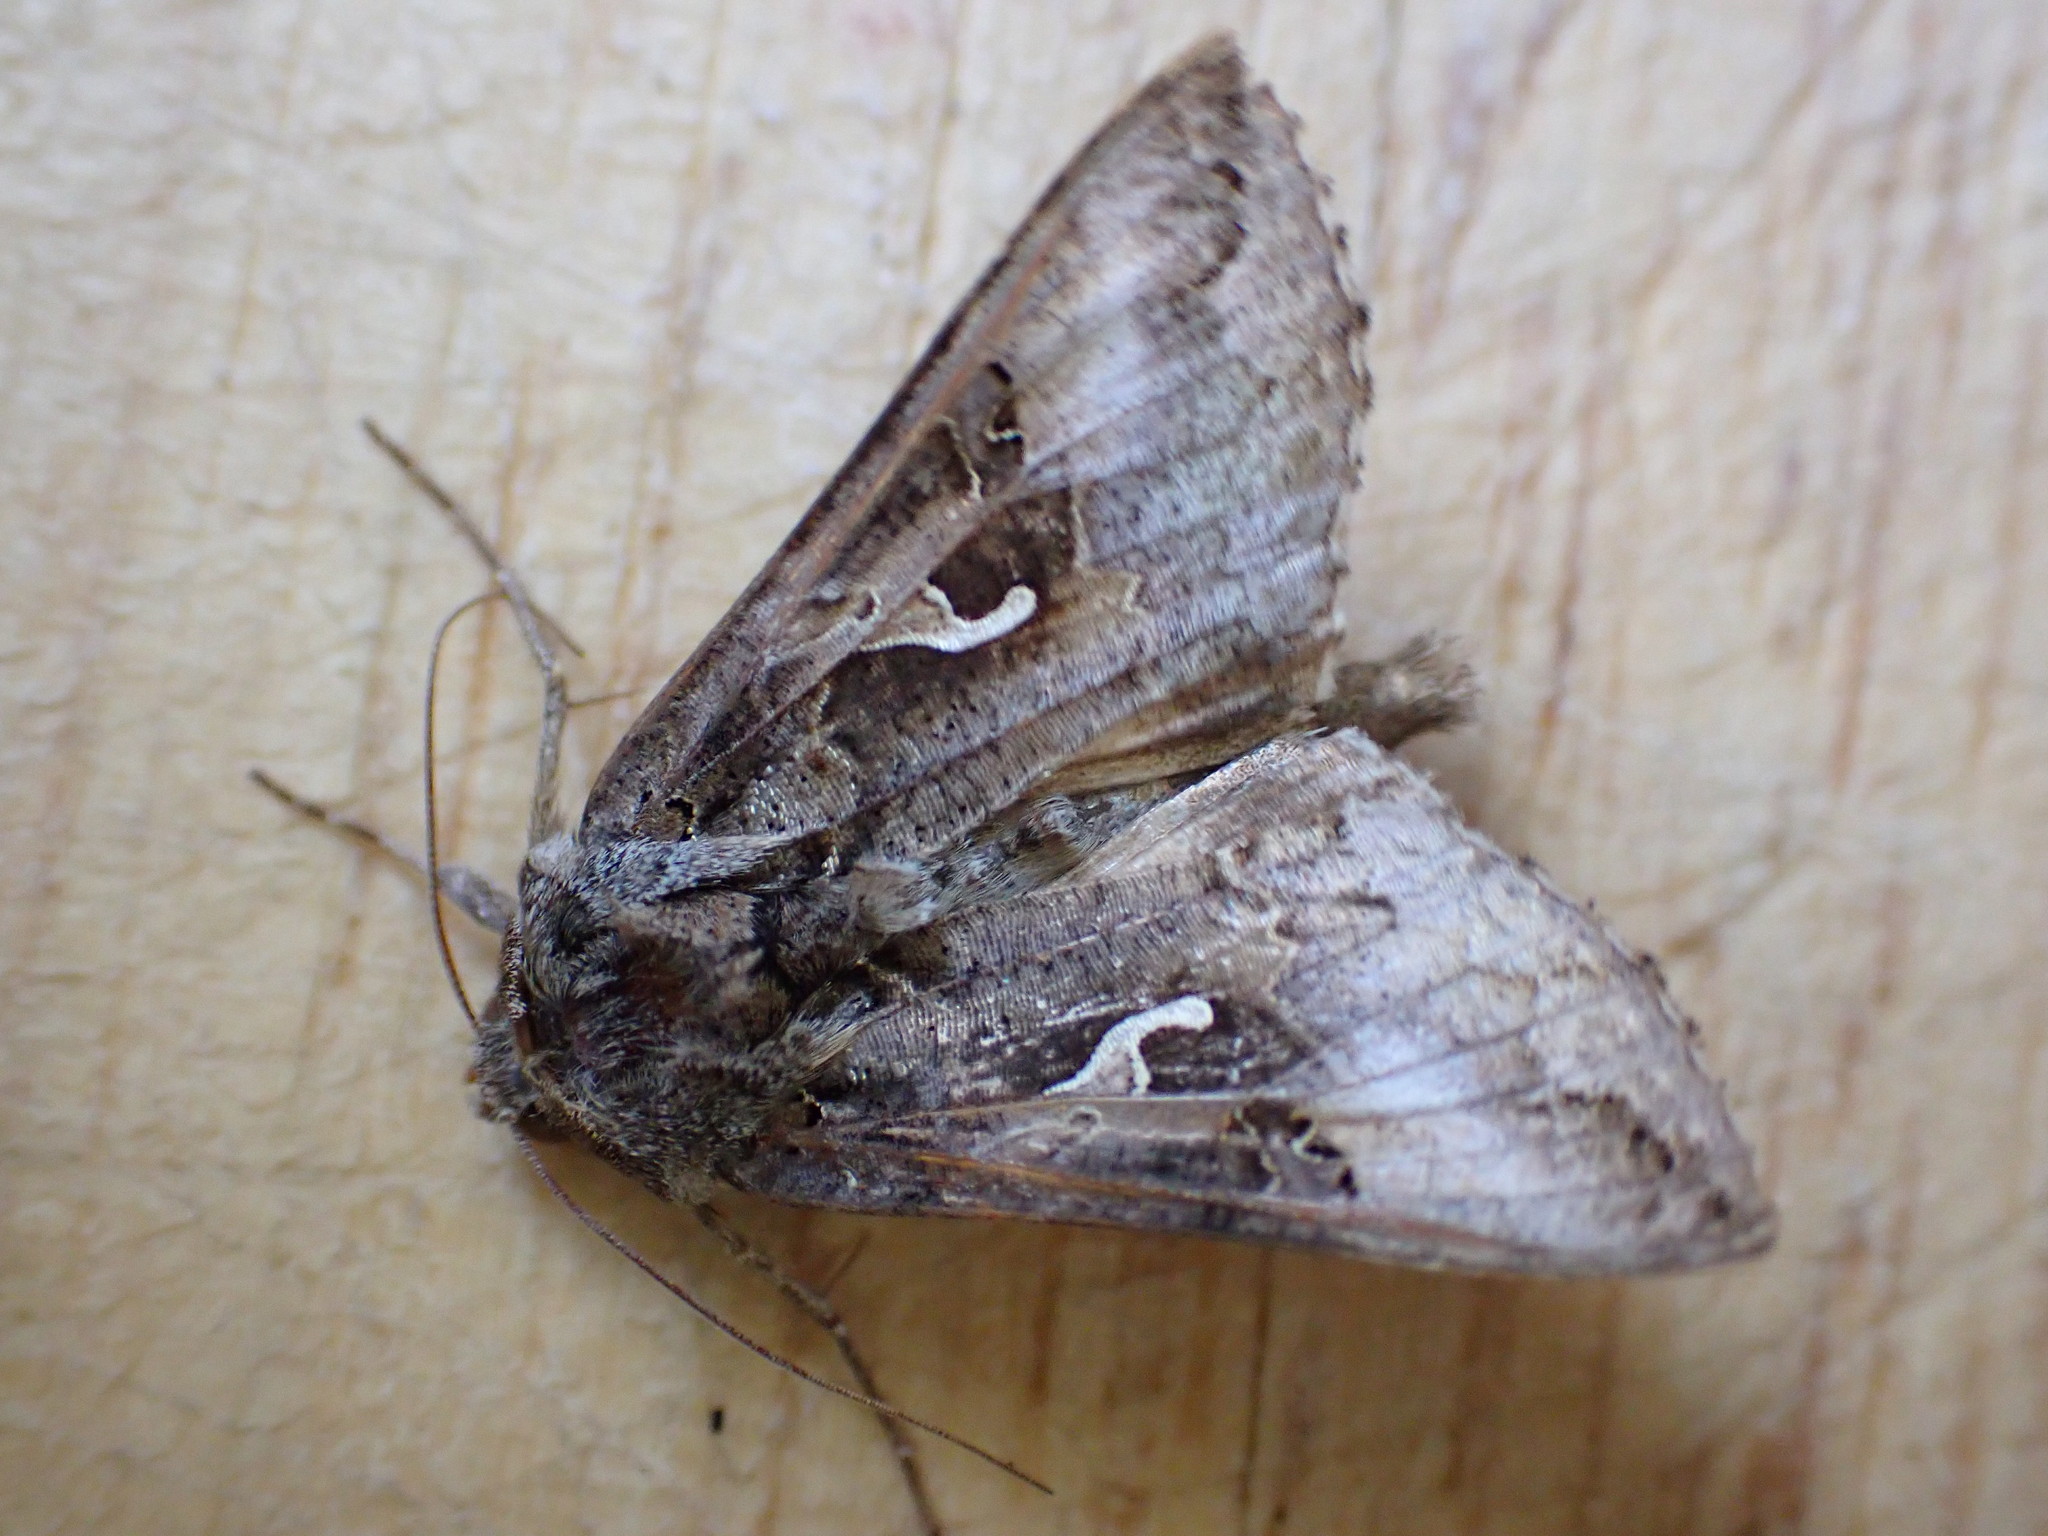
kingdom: Animalia
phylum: Arthropoda
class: Insecta
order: Lepidoptera
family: Noctuidae
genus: Autographa
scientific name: Autographa gamma
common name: Silver y
